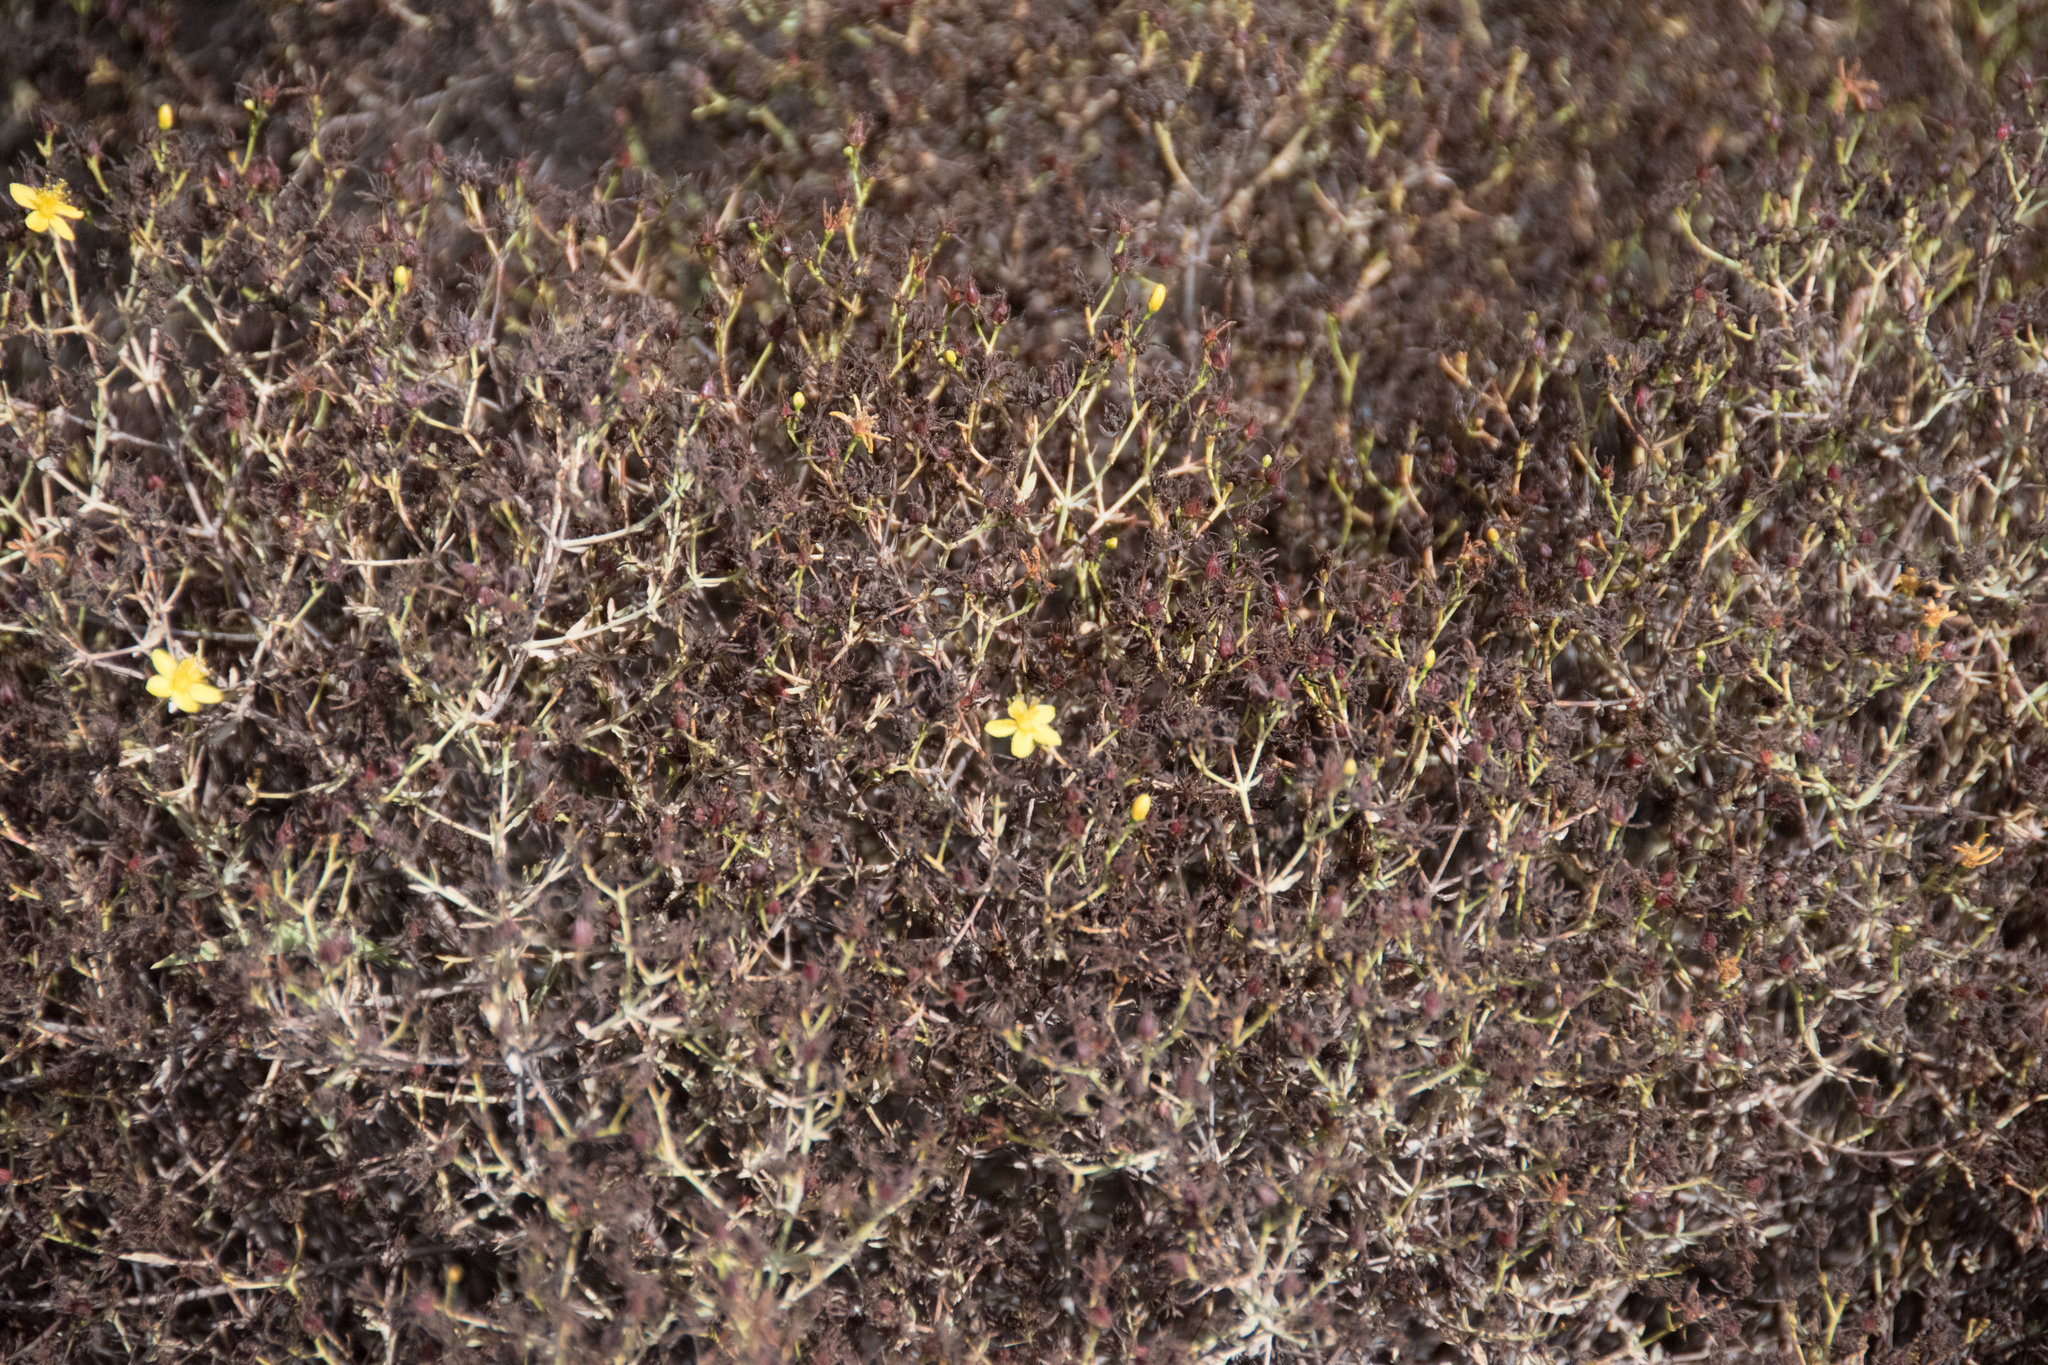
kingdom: Plantae
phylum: Tracheophyta
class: Magnoliopsida
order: Malpighiales
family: Hypericaceae
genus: Hypericum
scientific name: Hypericum triquetrifolium
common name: Tangled hypericum
